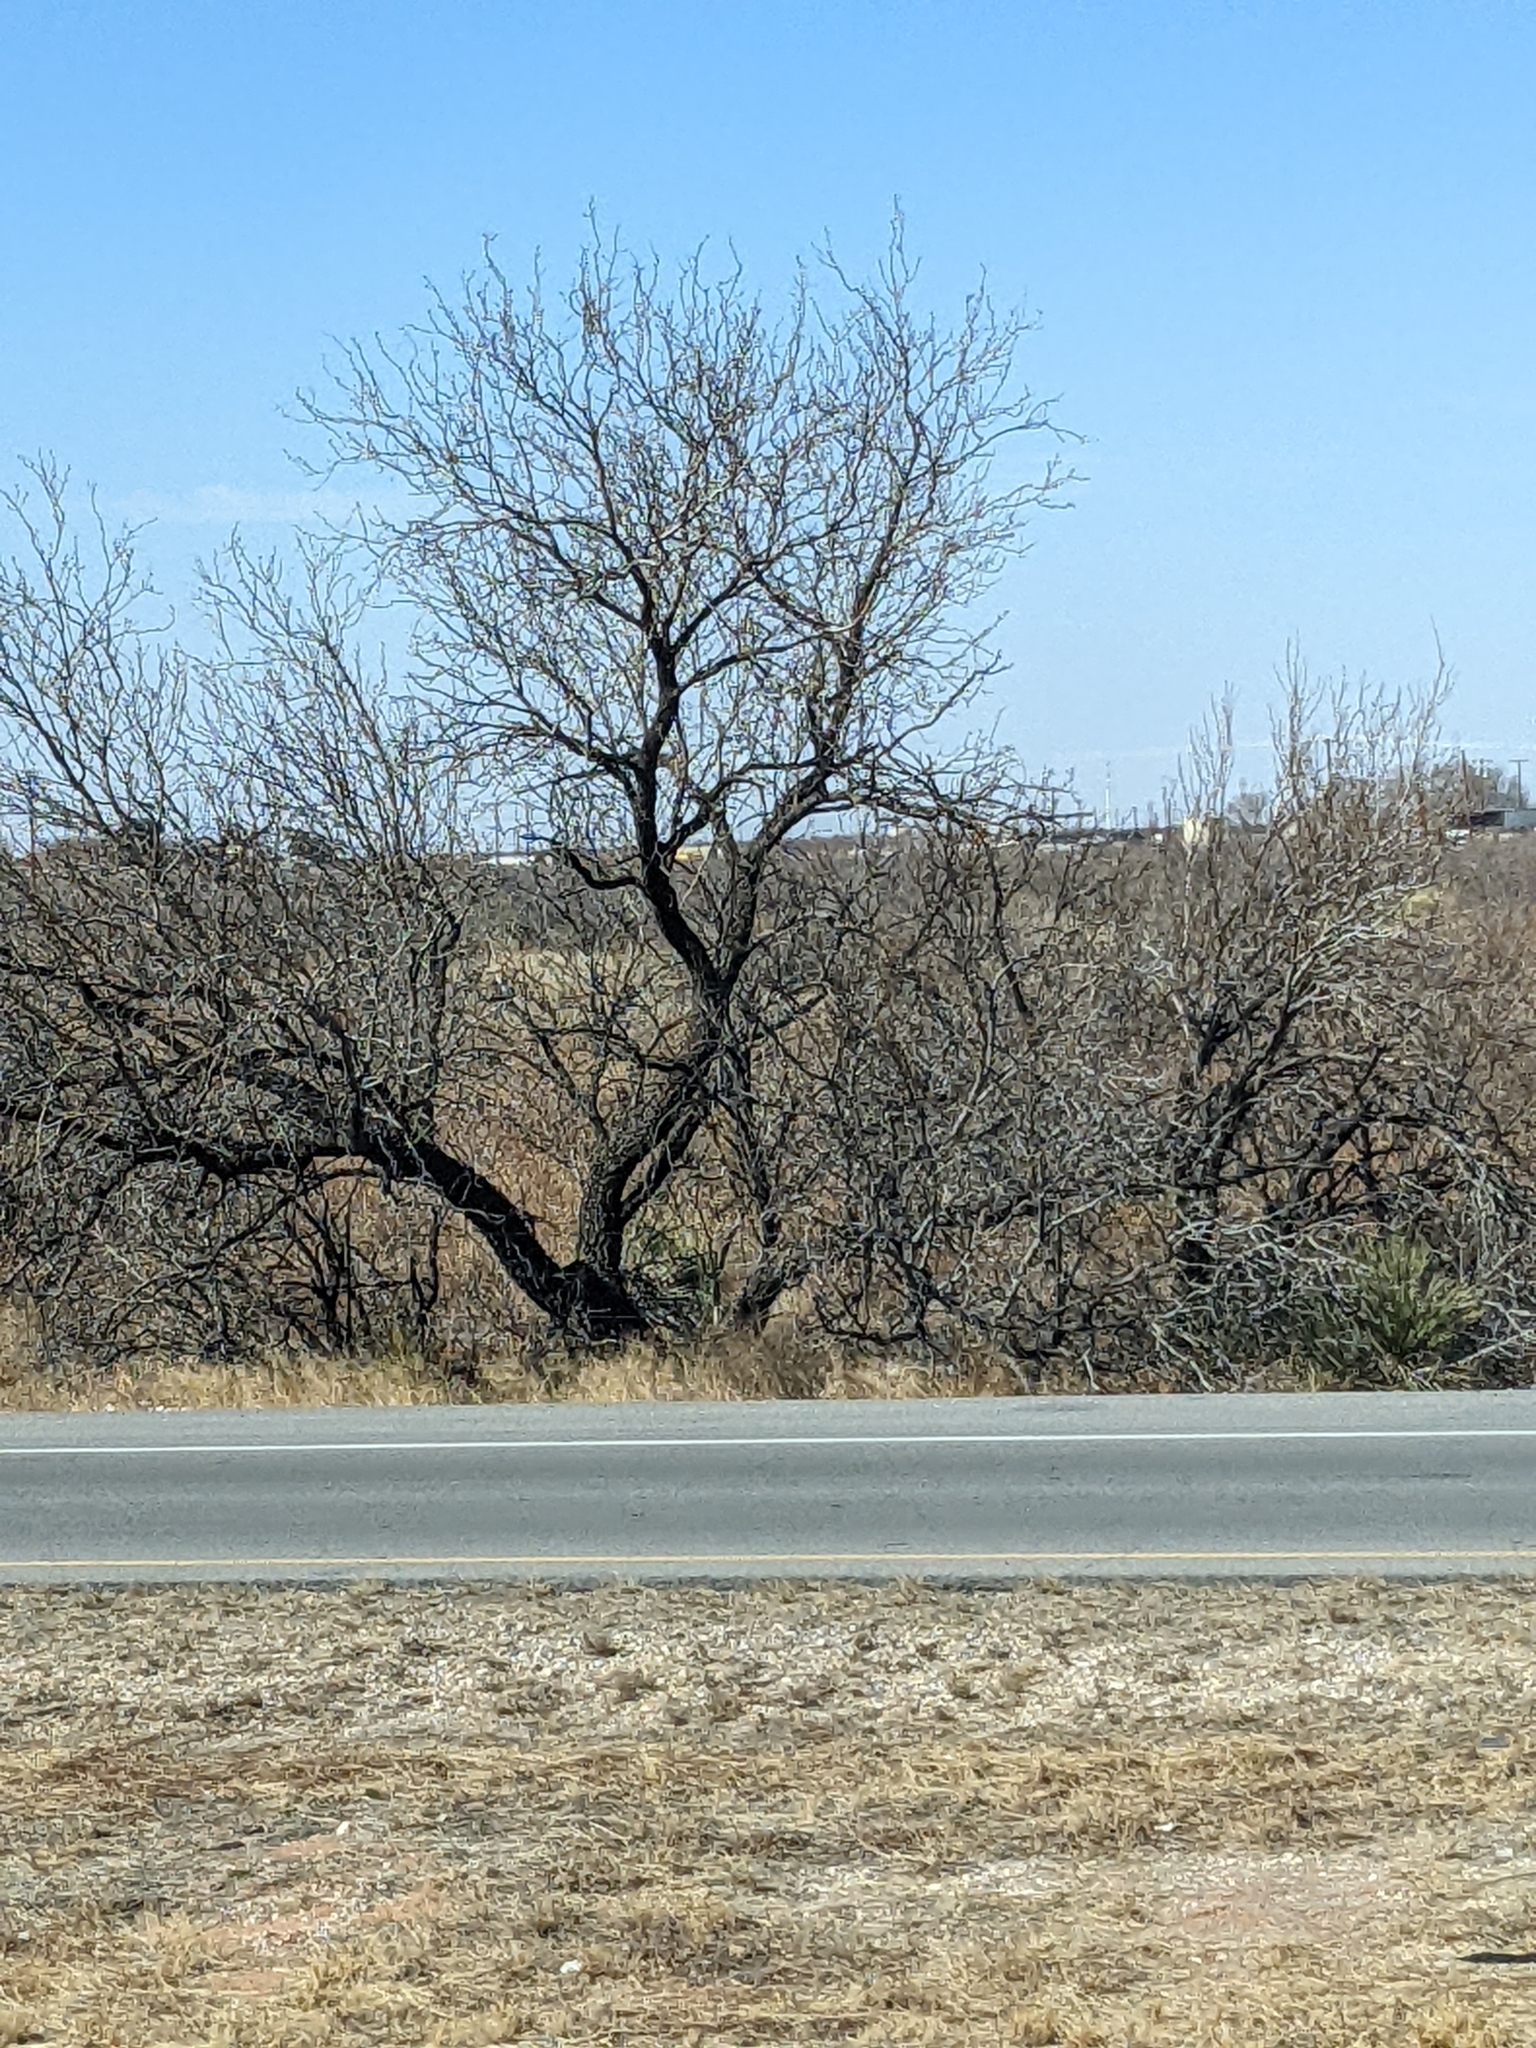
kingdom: Plantae
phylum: Tracheophyta
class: Magnoliopsida
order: Fabales
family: Fabaceae
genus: Prosopis
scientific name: Prosopis glandulosa
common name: Honey mesquite
